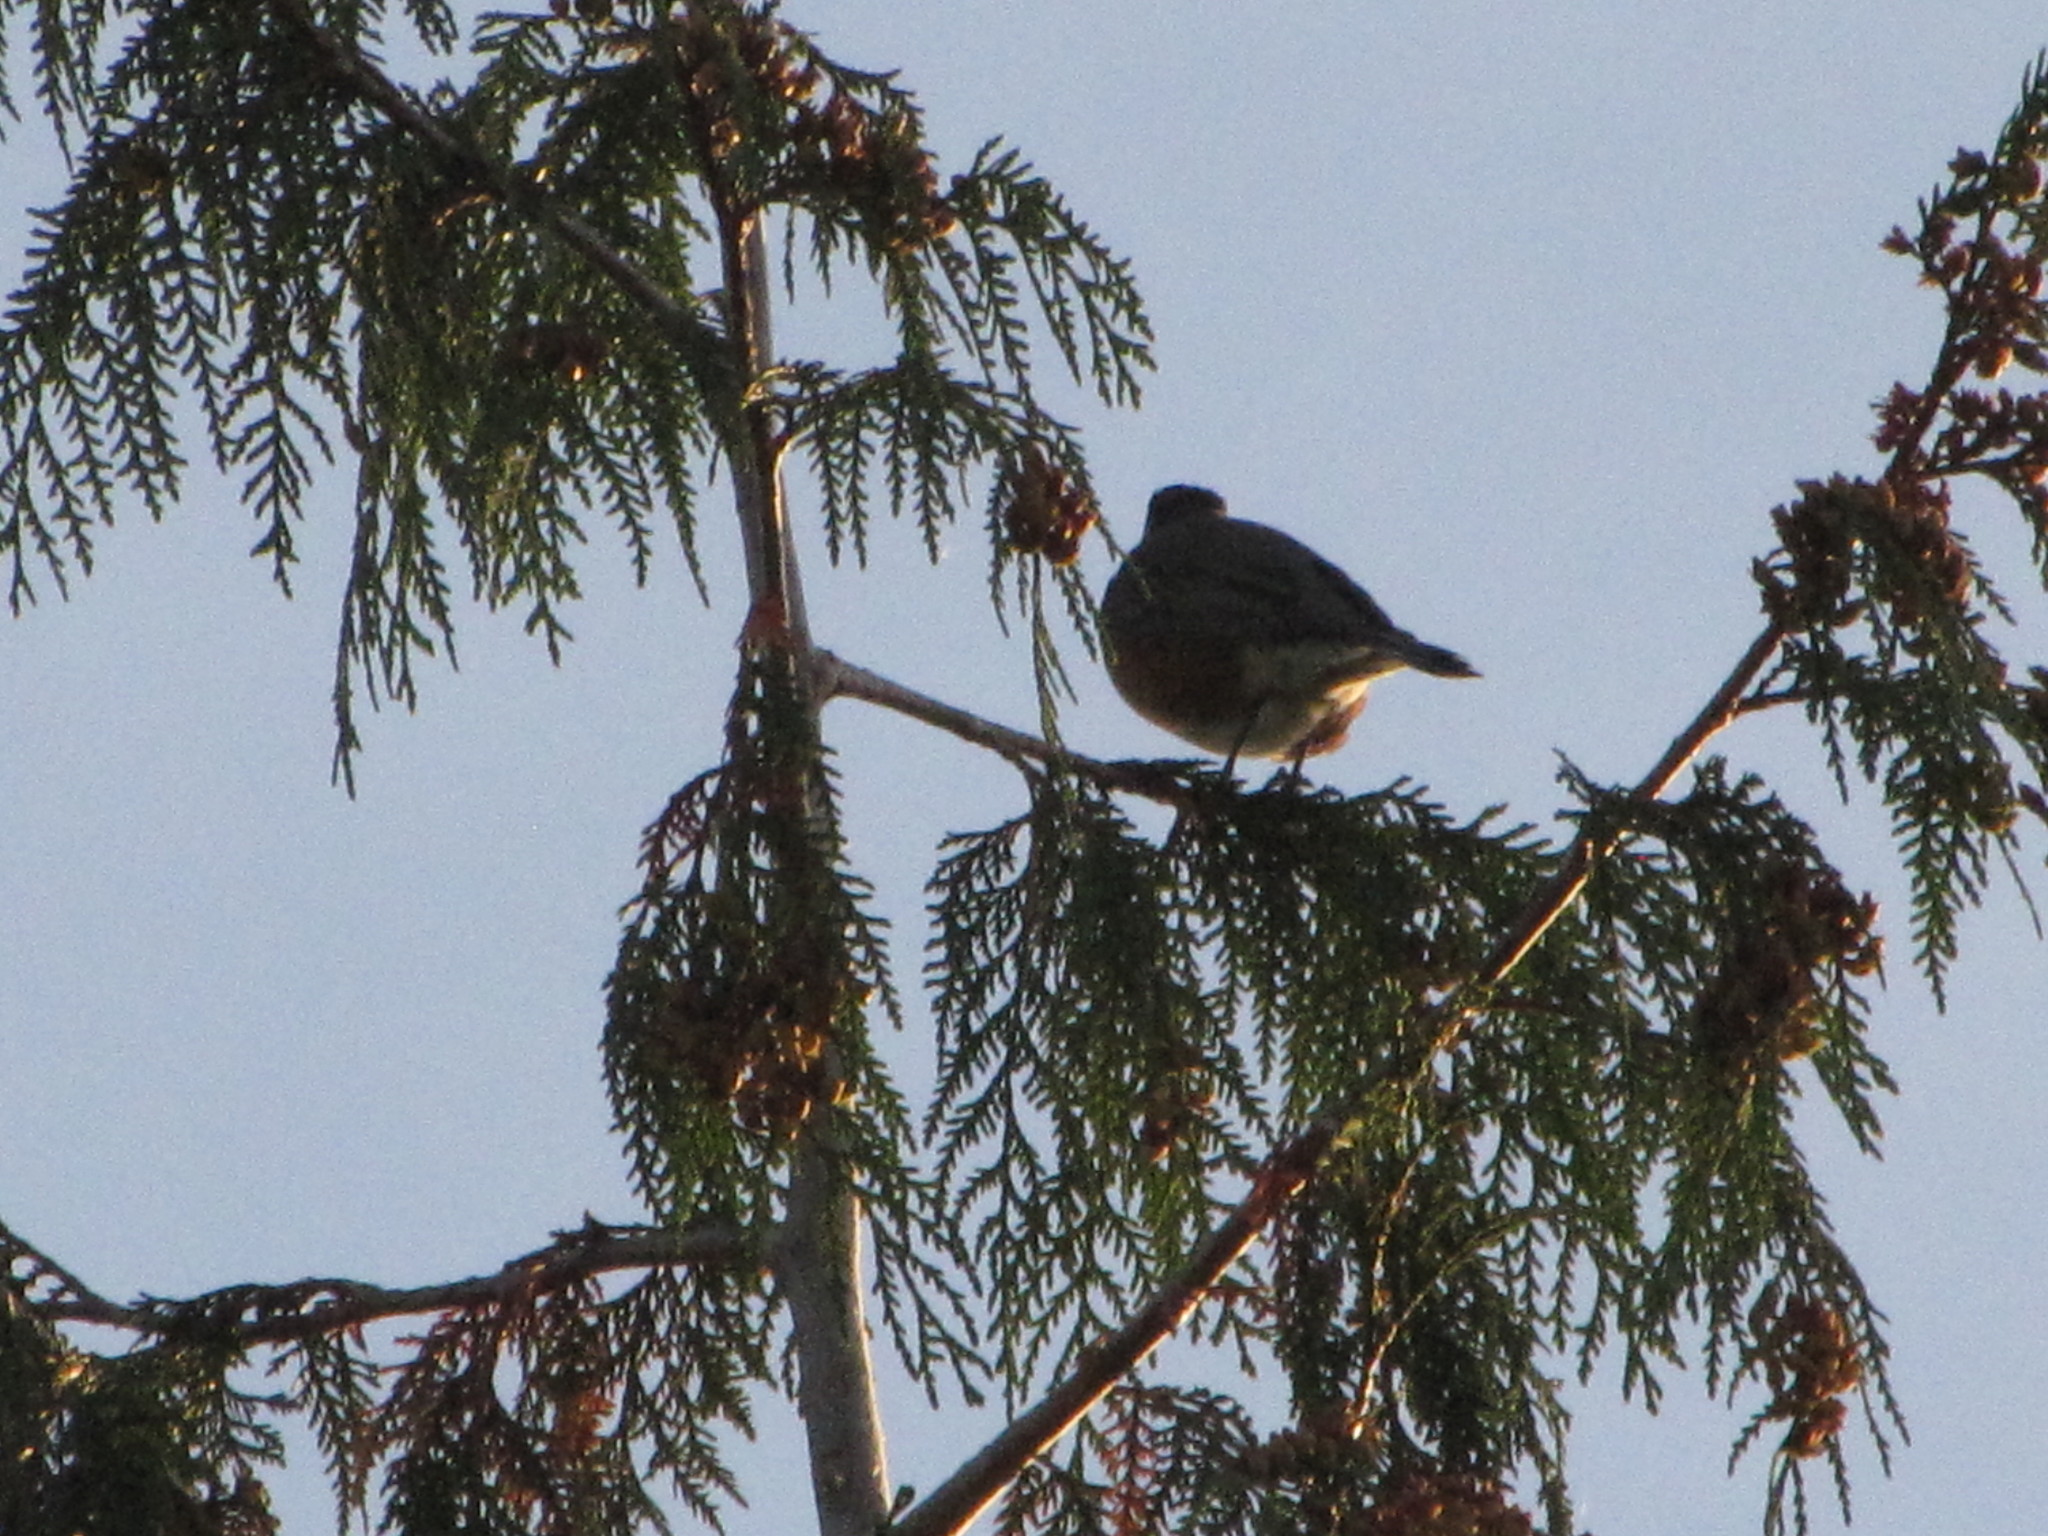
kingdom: Animalia
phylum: Chordata
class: Aves
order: Passeriformes
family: Turdidae
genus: Turdus
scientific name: Turdus migratorius
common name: American robin
